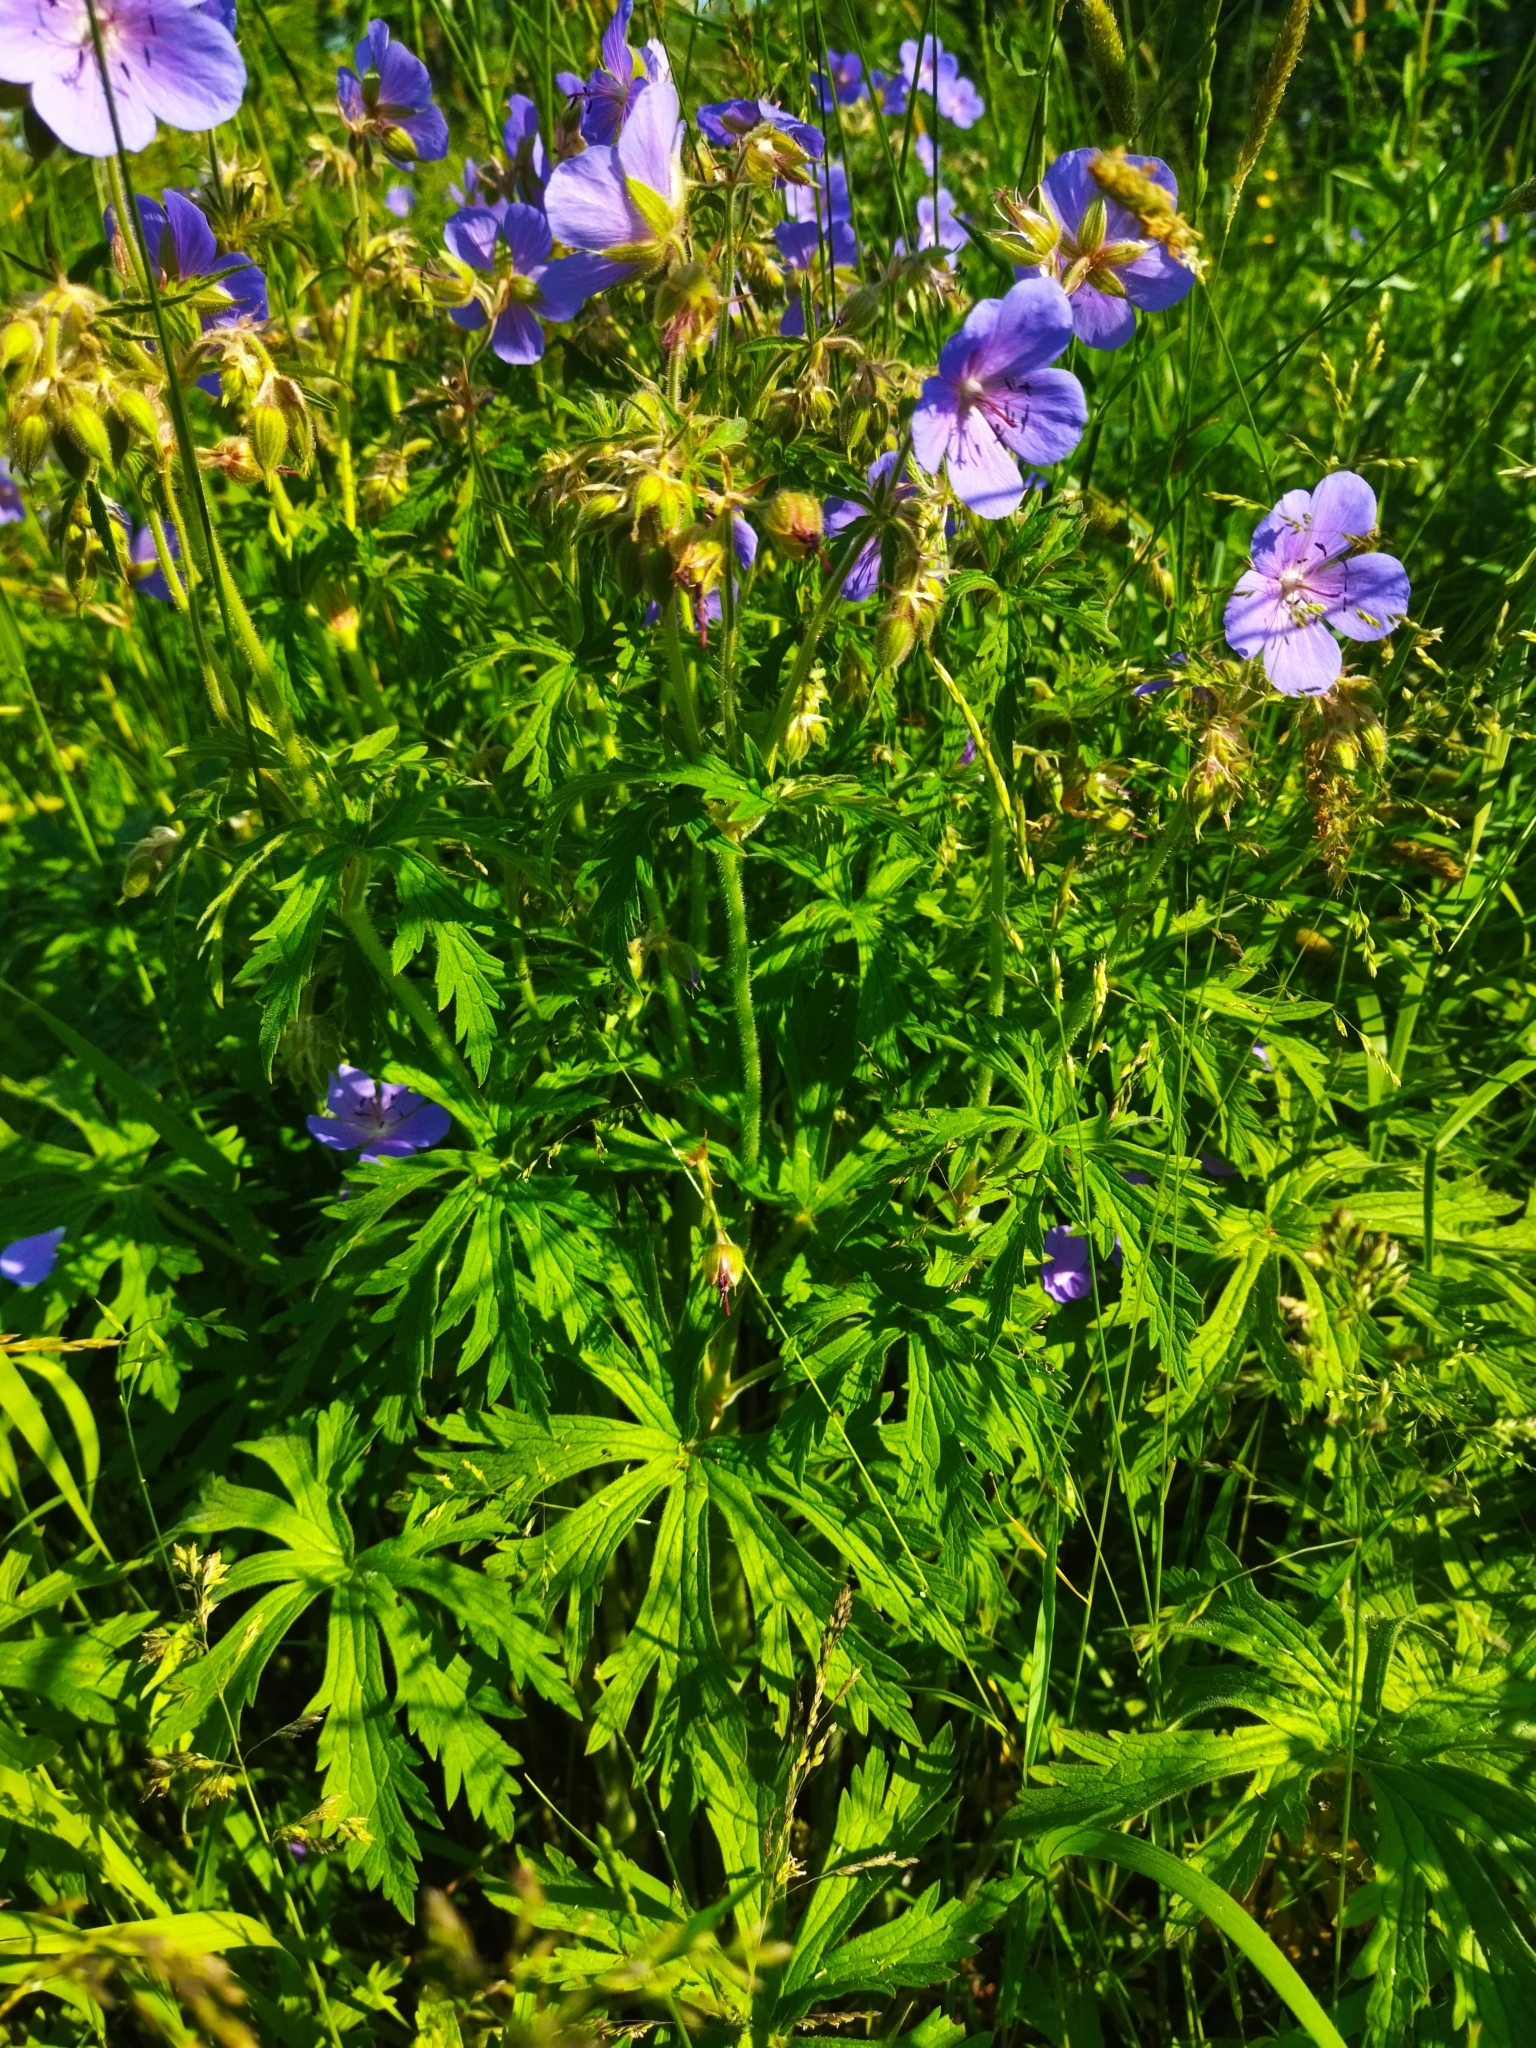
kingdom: Plantae
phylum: Tracheophyta
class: Magnoliopsida
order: Geraniales
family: Geraniaceae
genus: Geranium
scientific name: Geranium pratense
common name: Meadow crane's-bill
